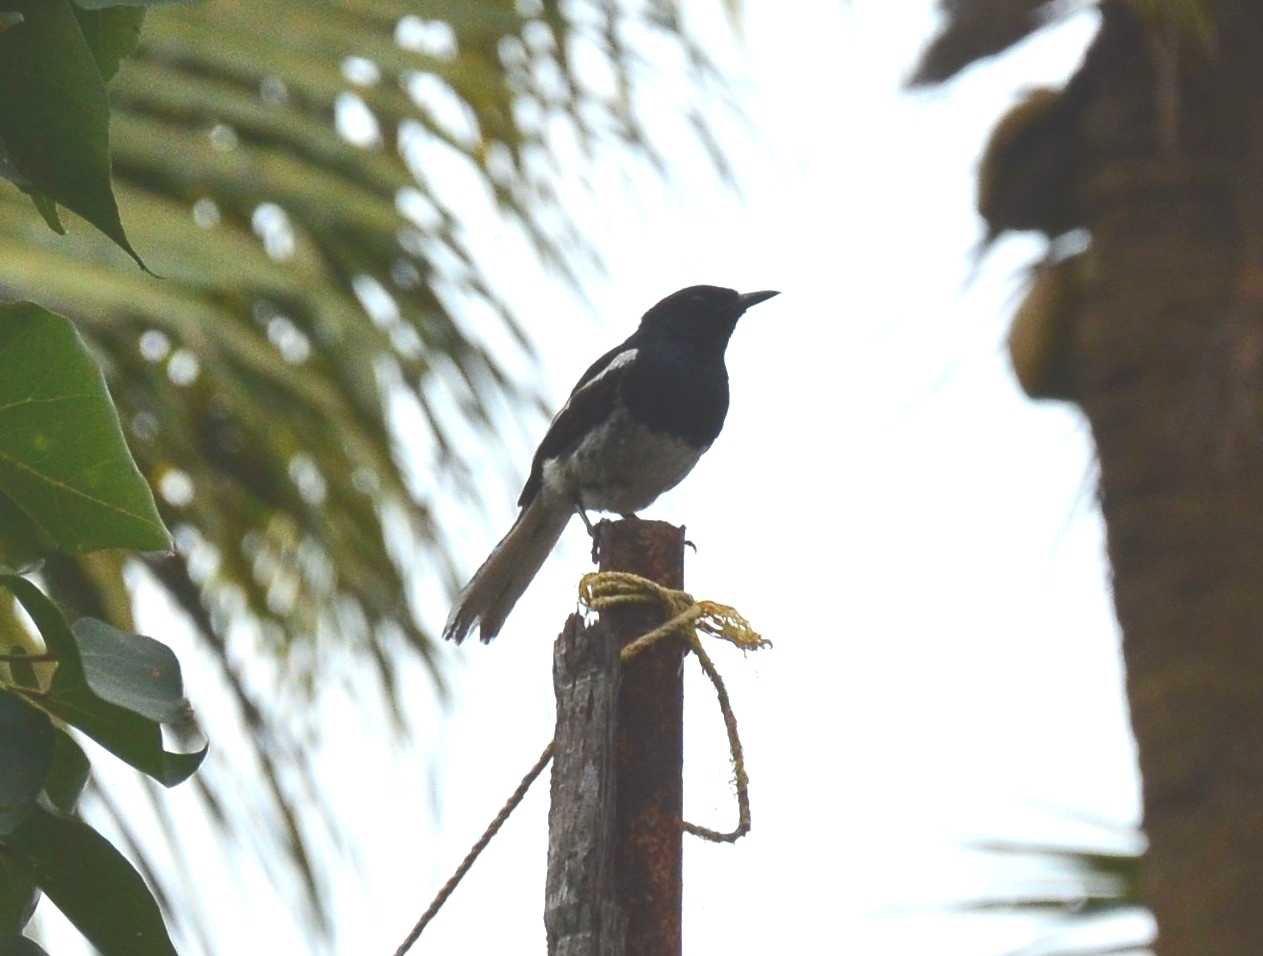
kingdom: Animalia
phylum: Chordata
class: Aves
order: Passeriformes
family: Muscicapidae
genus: Copsychus
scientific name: Copsychus saularis
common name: Oriental magpie-robin
